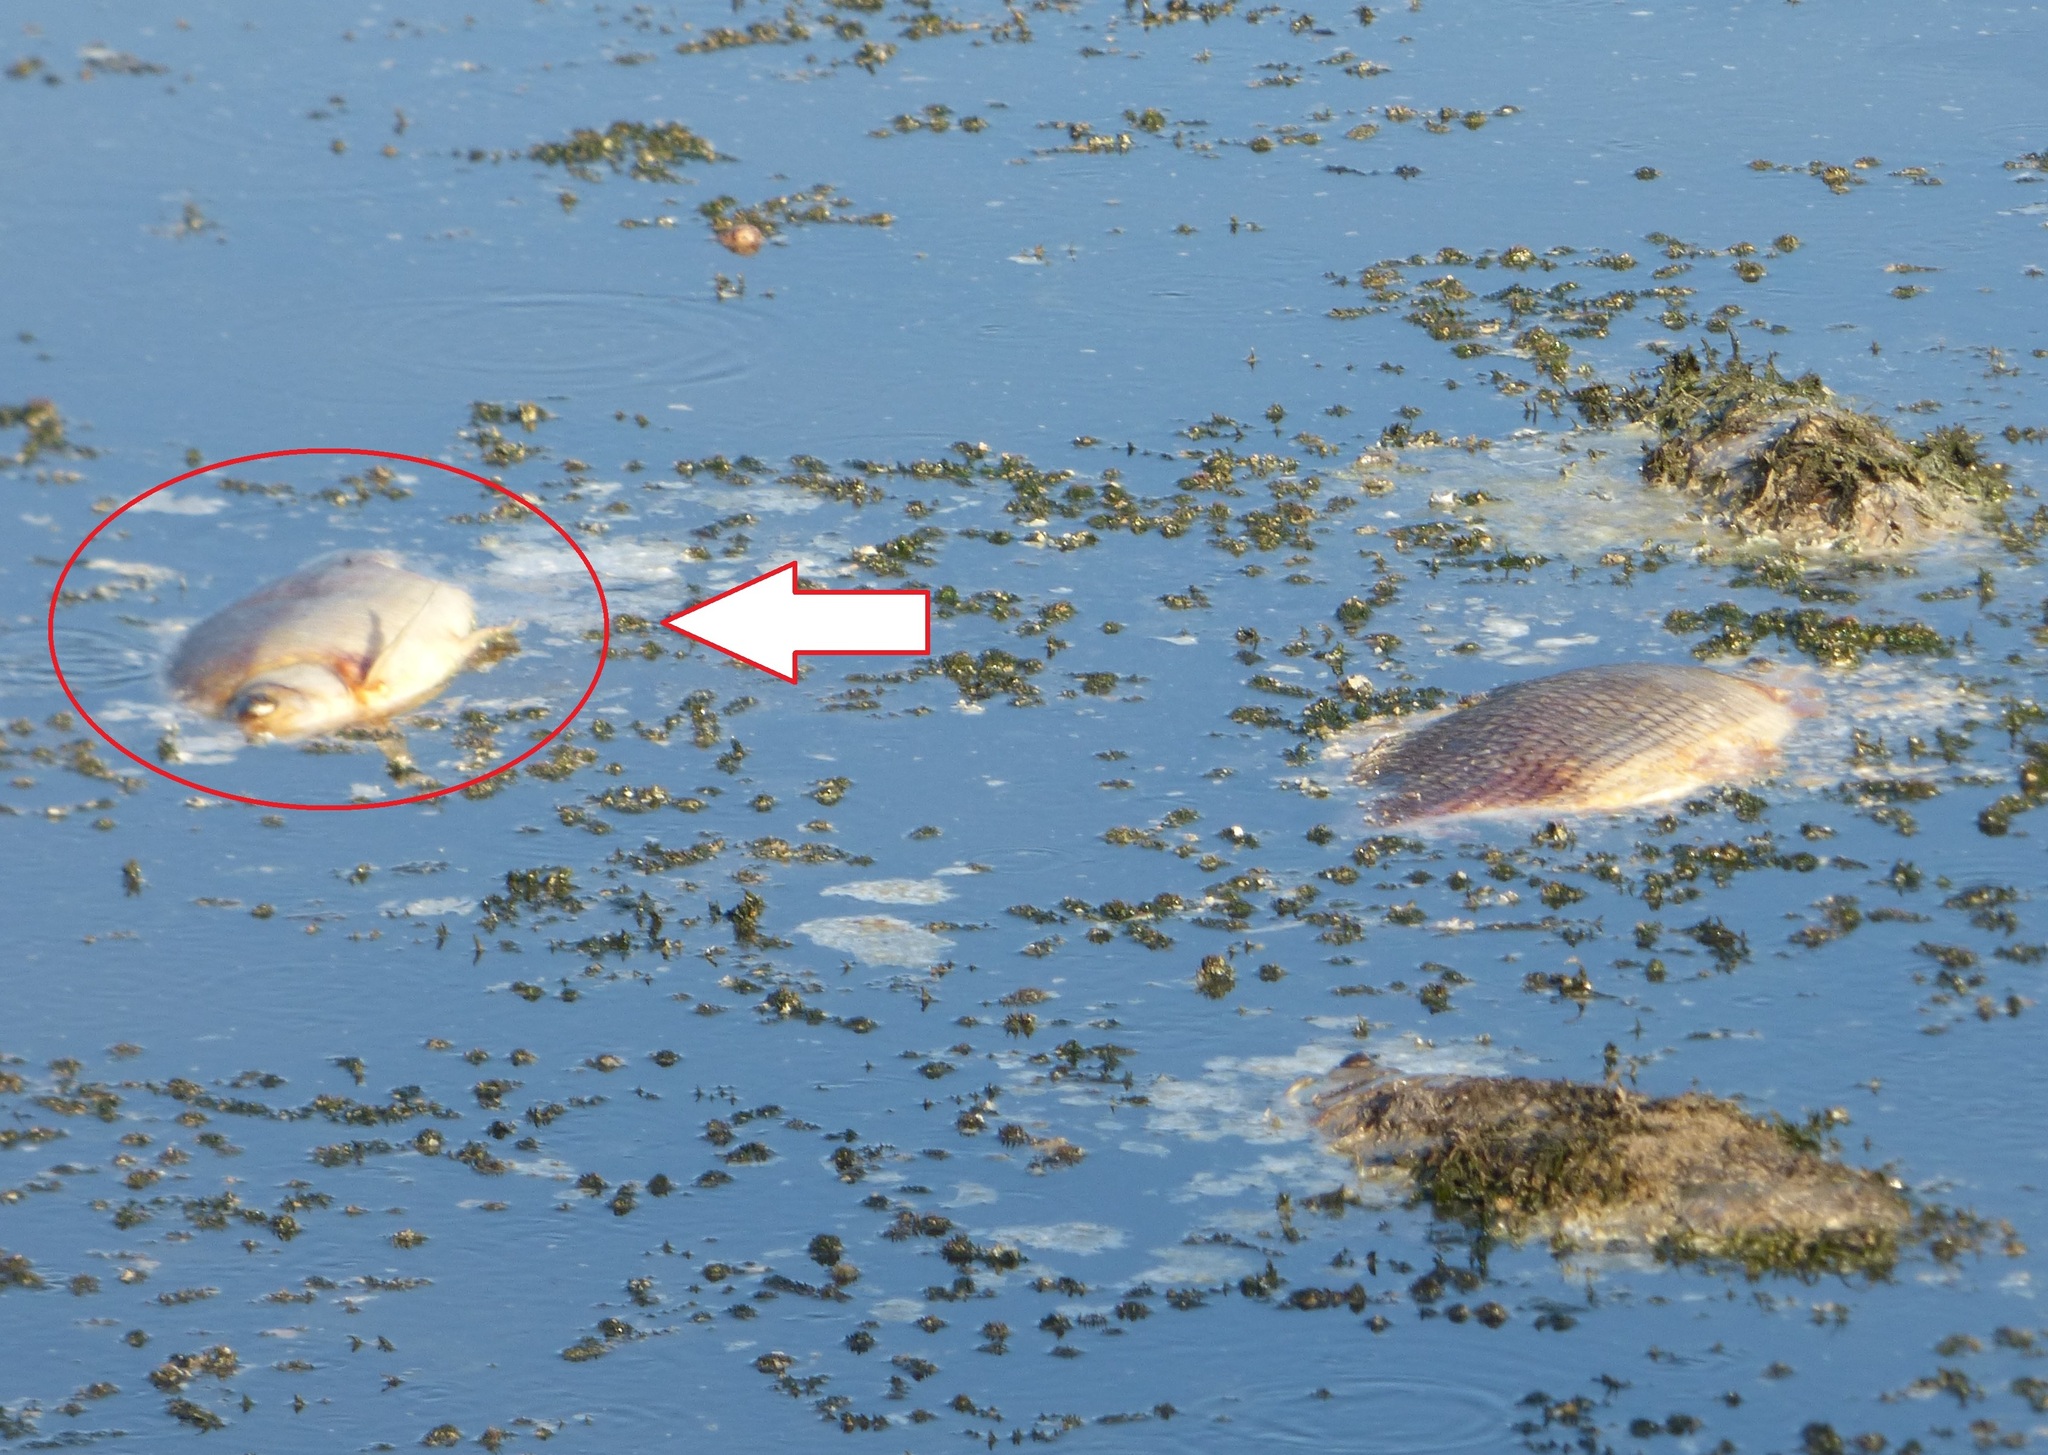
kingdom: Animalia
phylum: Chordata
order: Characiformes
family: Serrasalmidae
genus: Mylossoma
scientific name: Mylossoma duriventre
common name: Silver dollar fish
